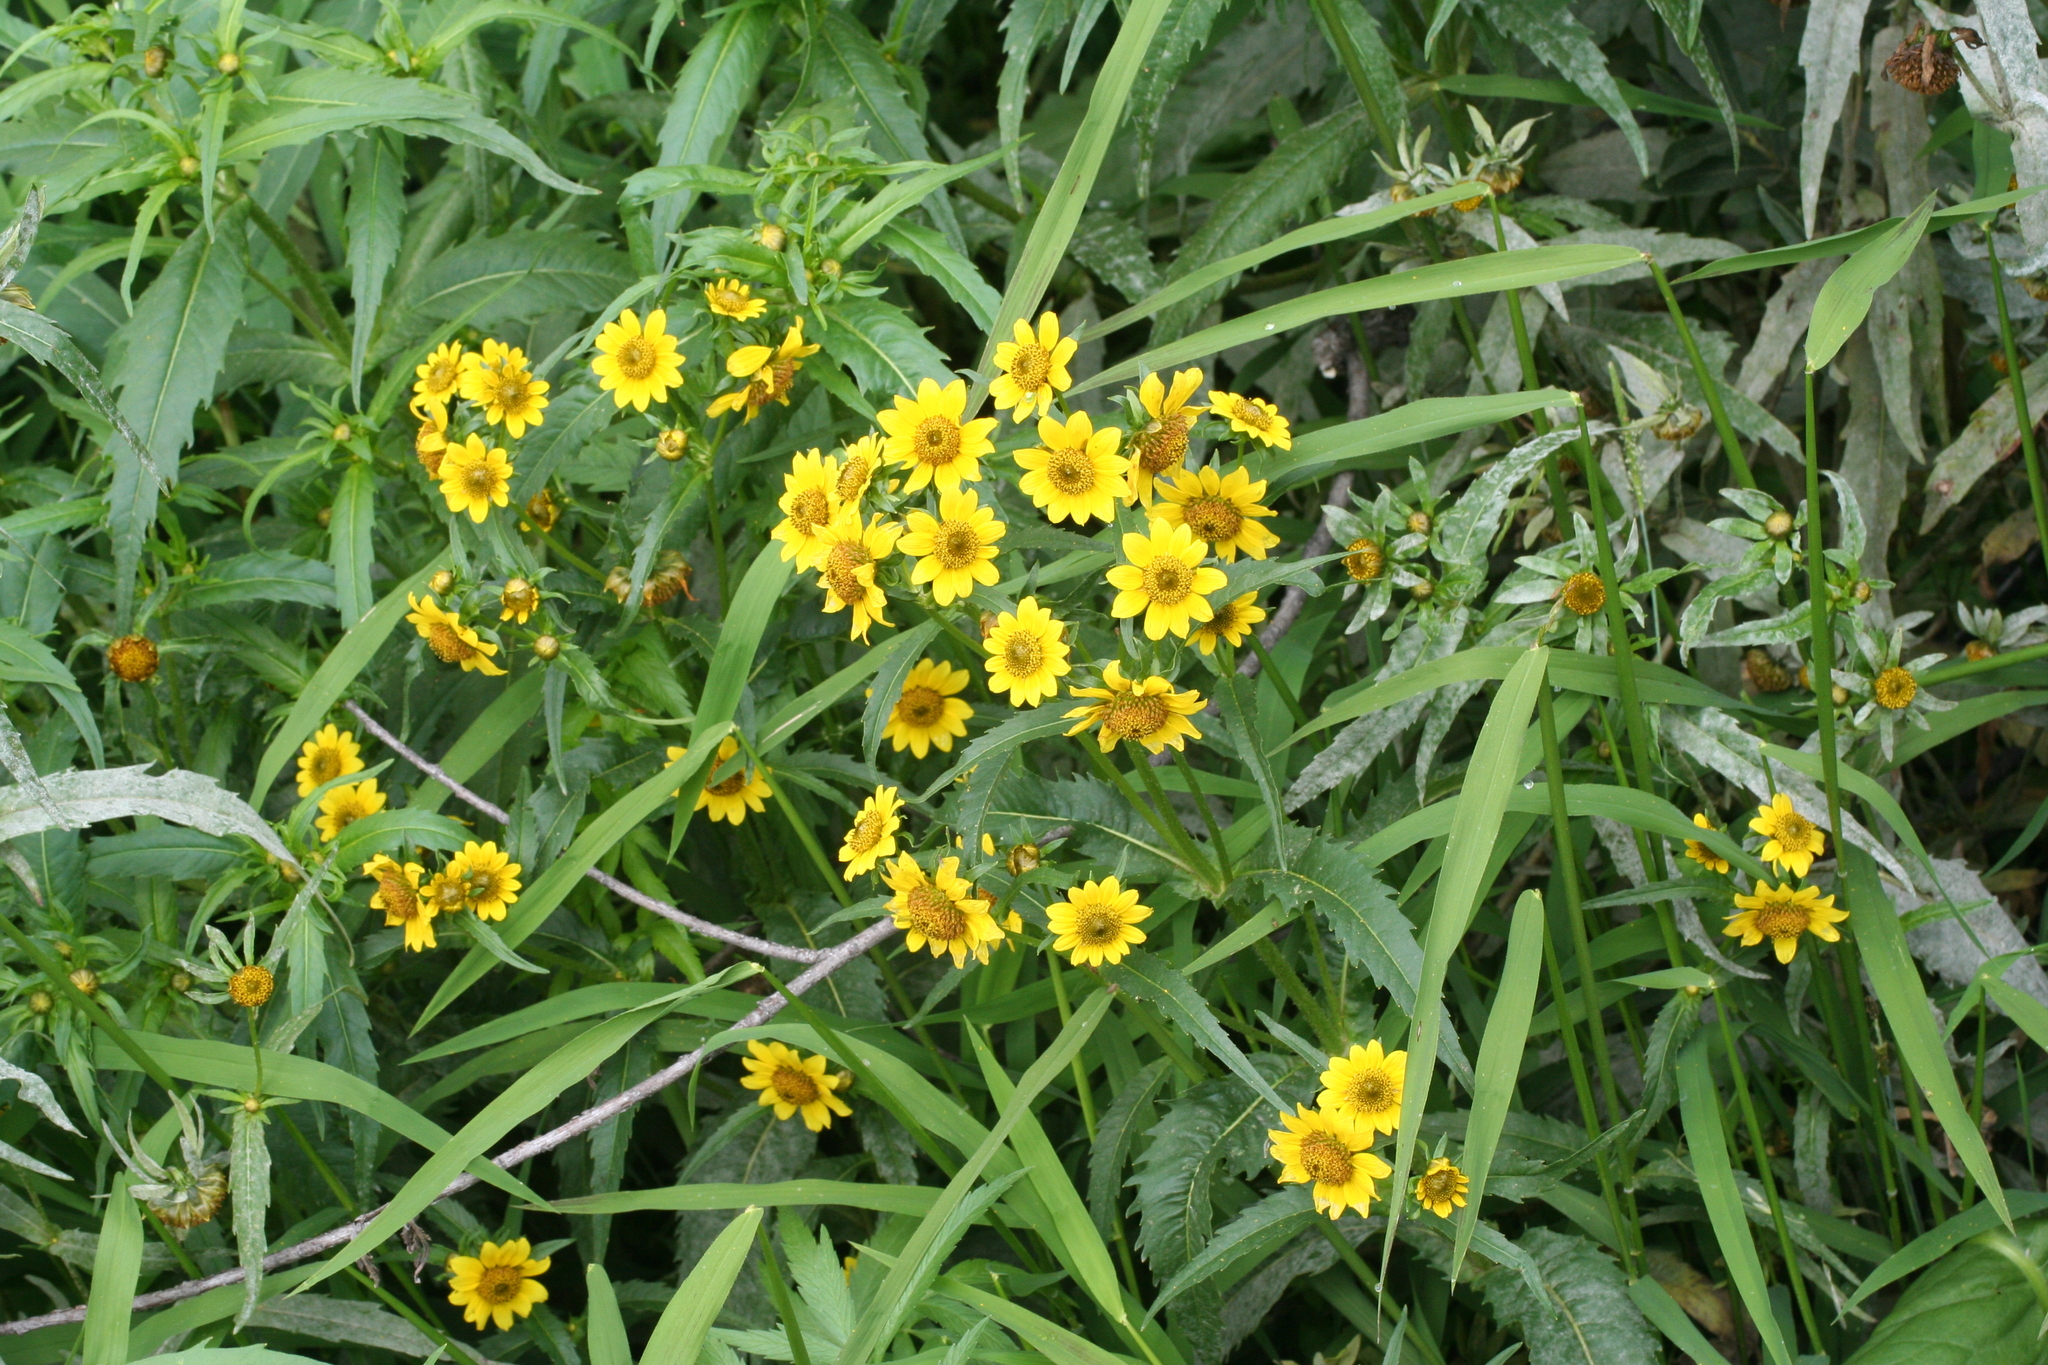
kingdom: Plantae
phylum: Tracheophyta
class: Magnoliopsida
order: Asterales
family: Asteraceae
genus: Bidens
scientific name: Bidens cernua
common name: Nodding bur-marigold
